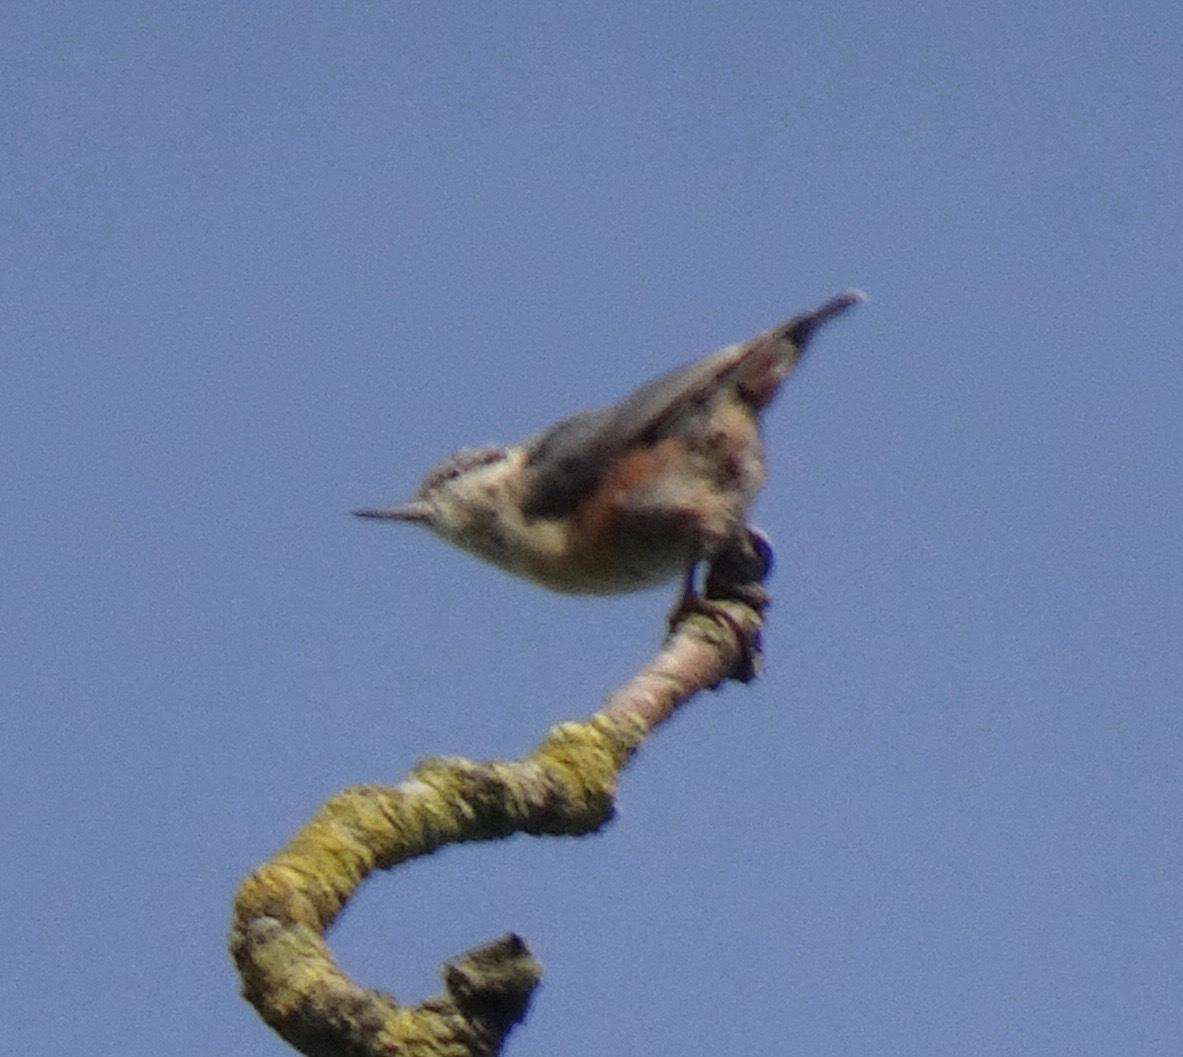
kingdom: Animalia
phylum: Chordata
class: Aves
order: Passeriformes
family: Sittidae
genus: Sitta
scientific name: Sitta europaea
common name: Eurasian nuthatch
